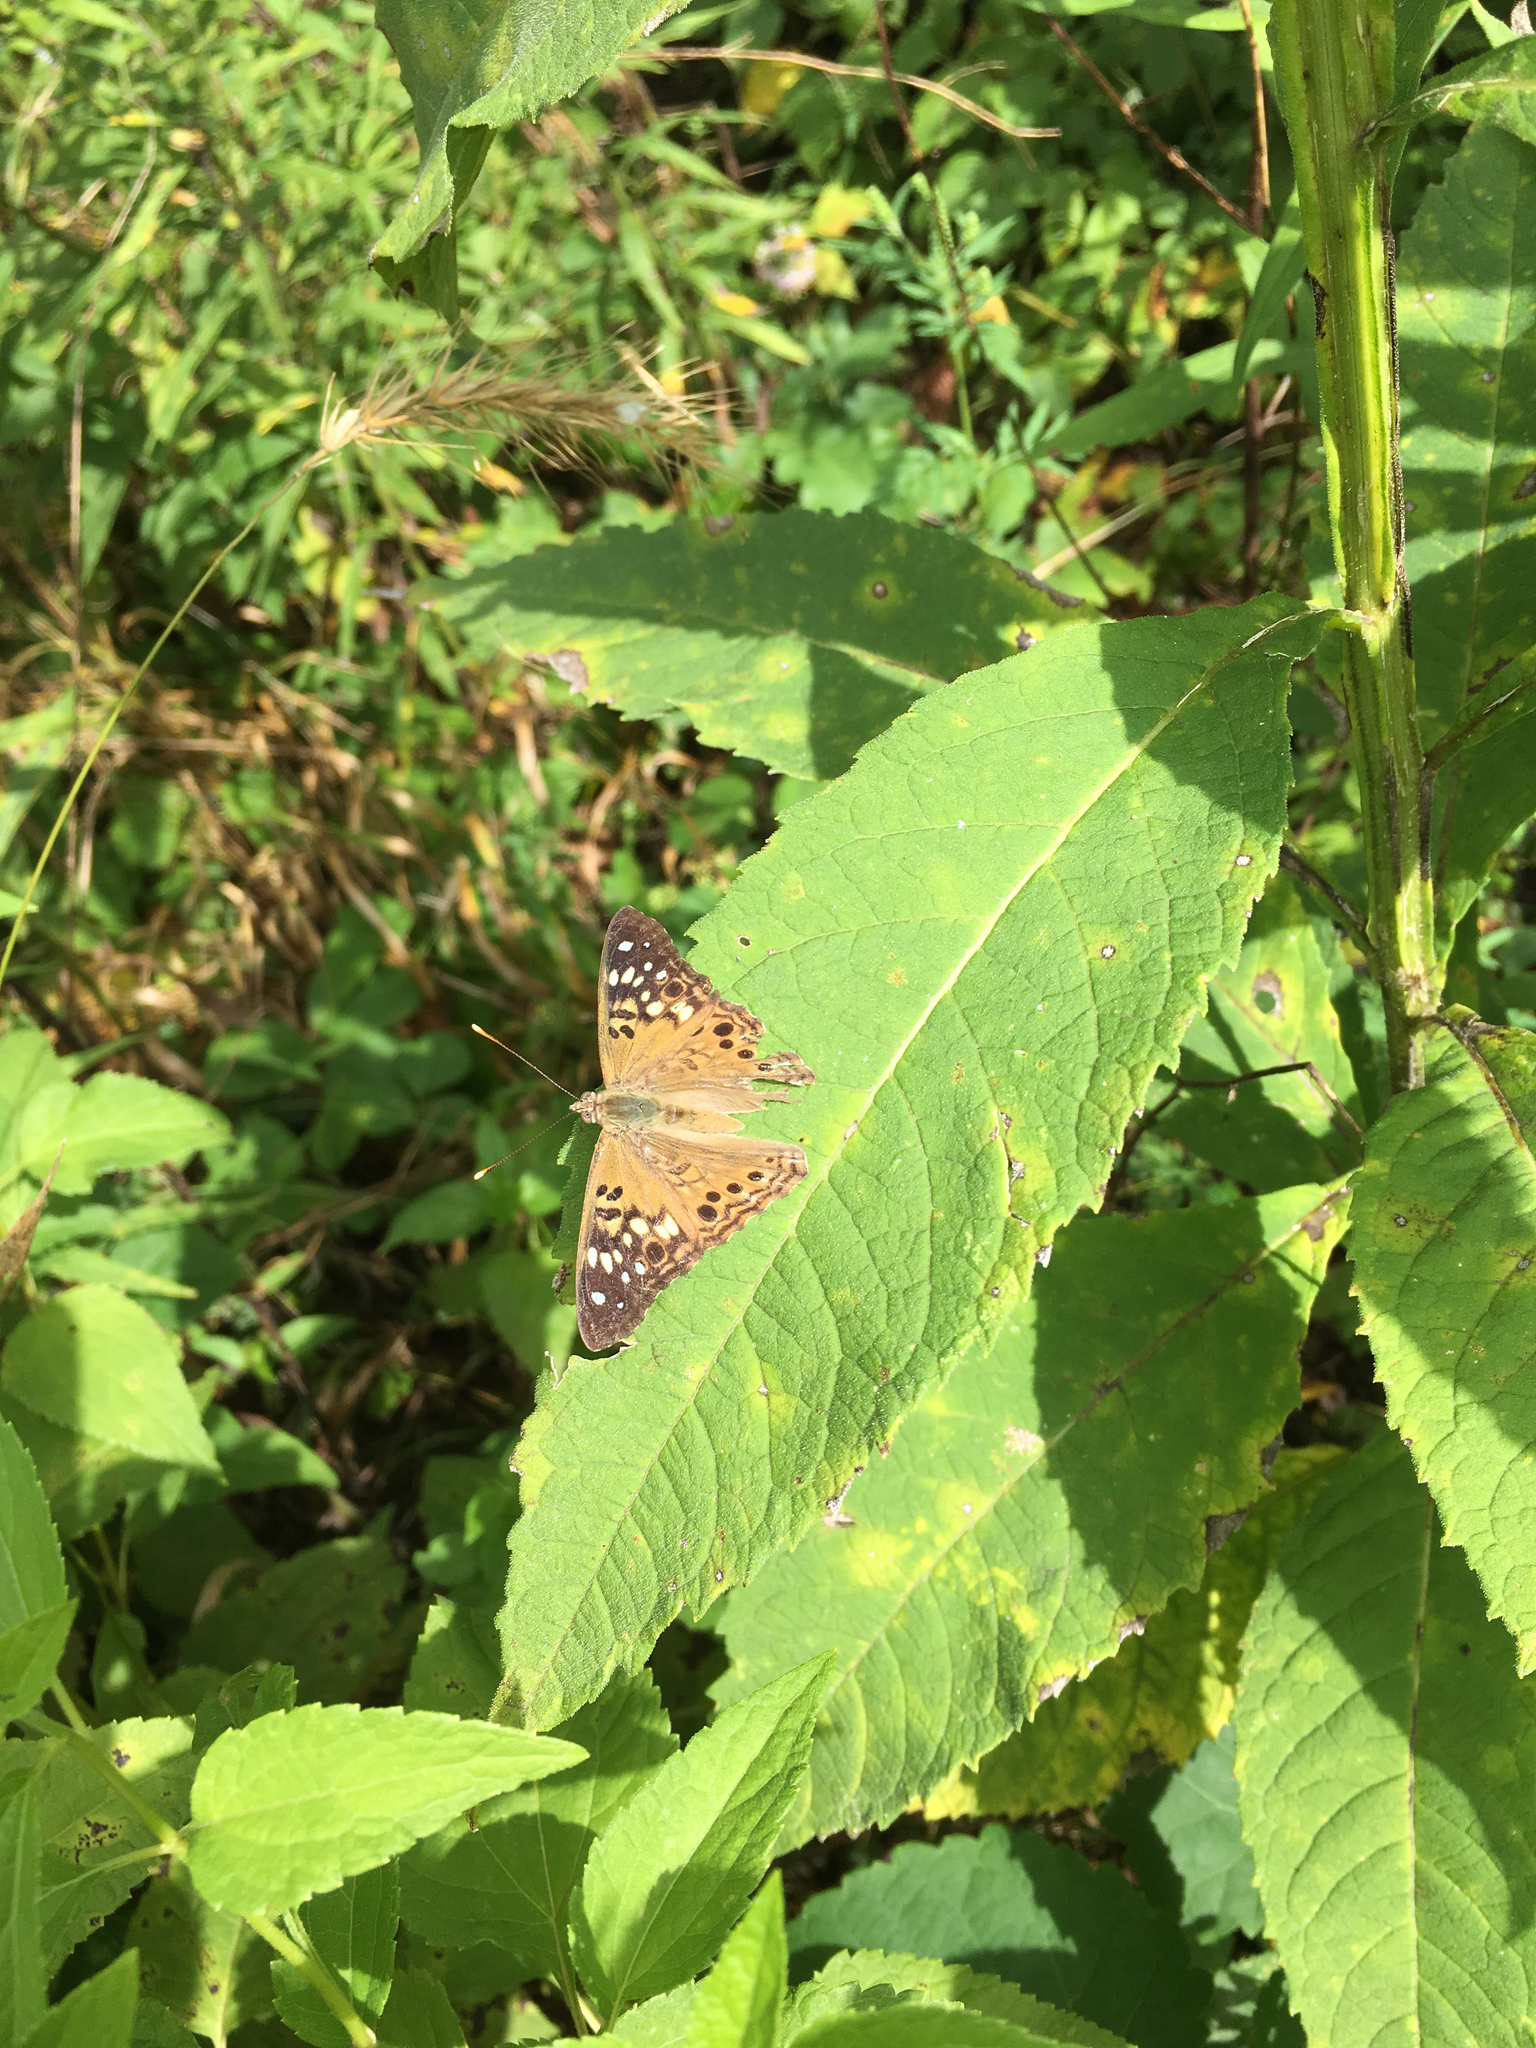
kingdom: Animalia
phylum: Arthropoda
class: Insecta
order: Lepidoptera
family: Nymphalidae
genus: Asterocampa
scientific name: Asterocampa celtis
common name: Hackberry emperor
